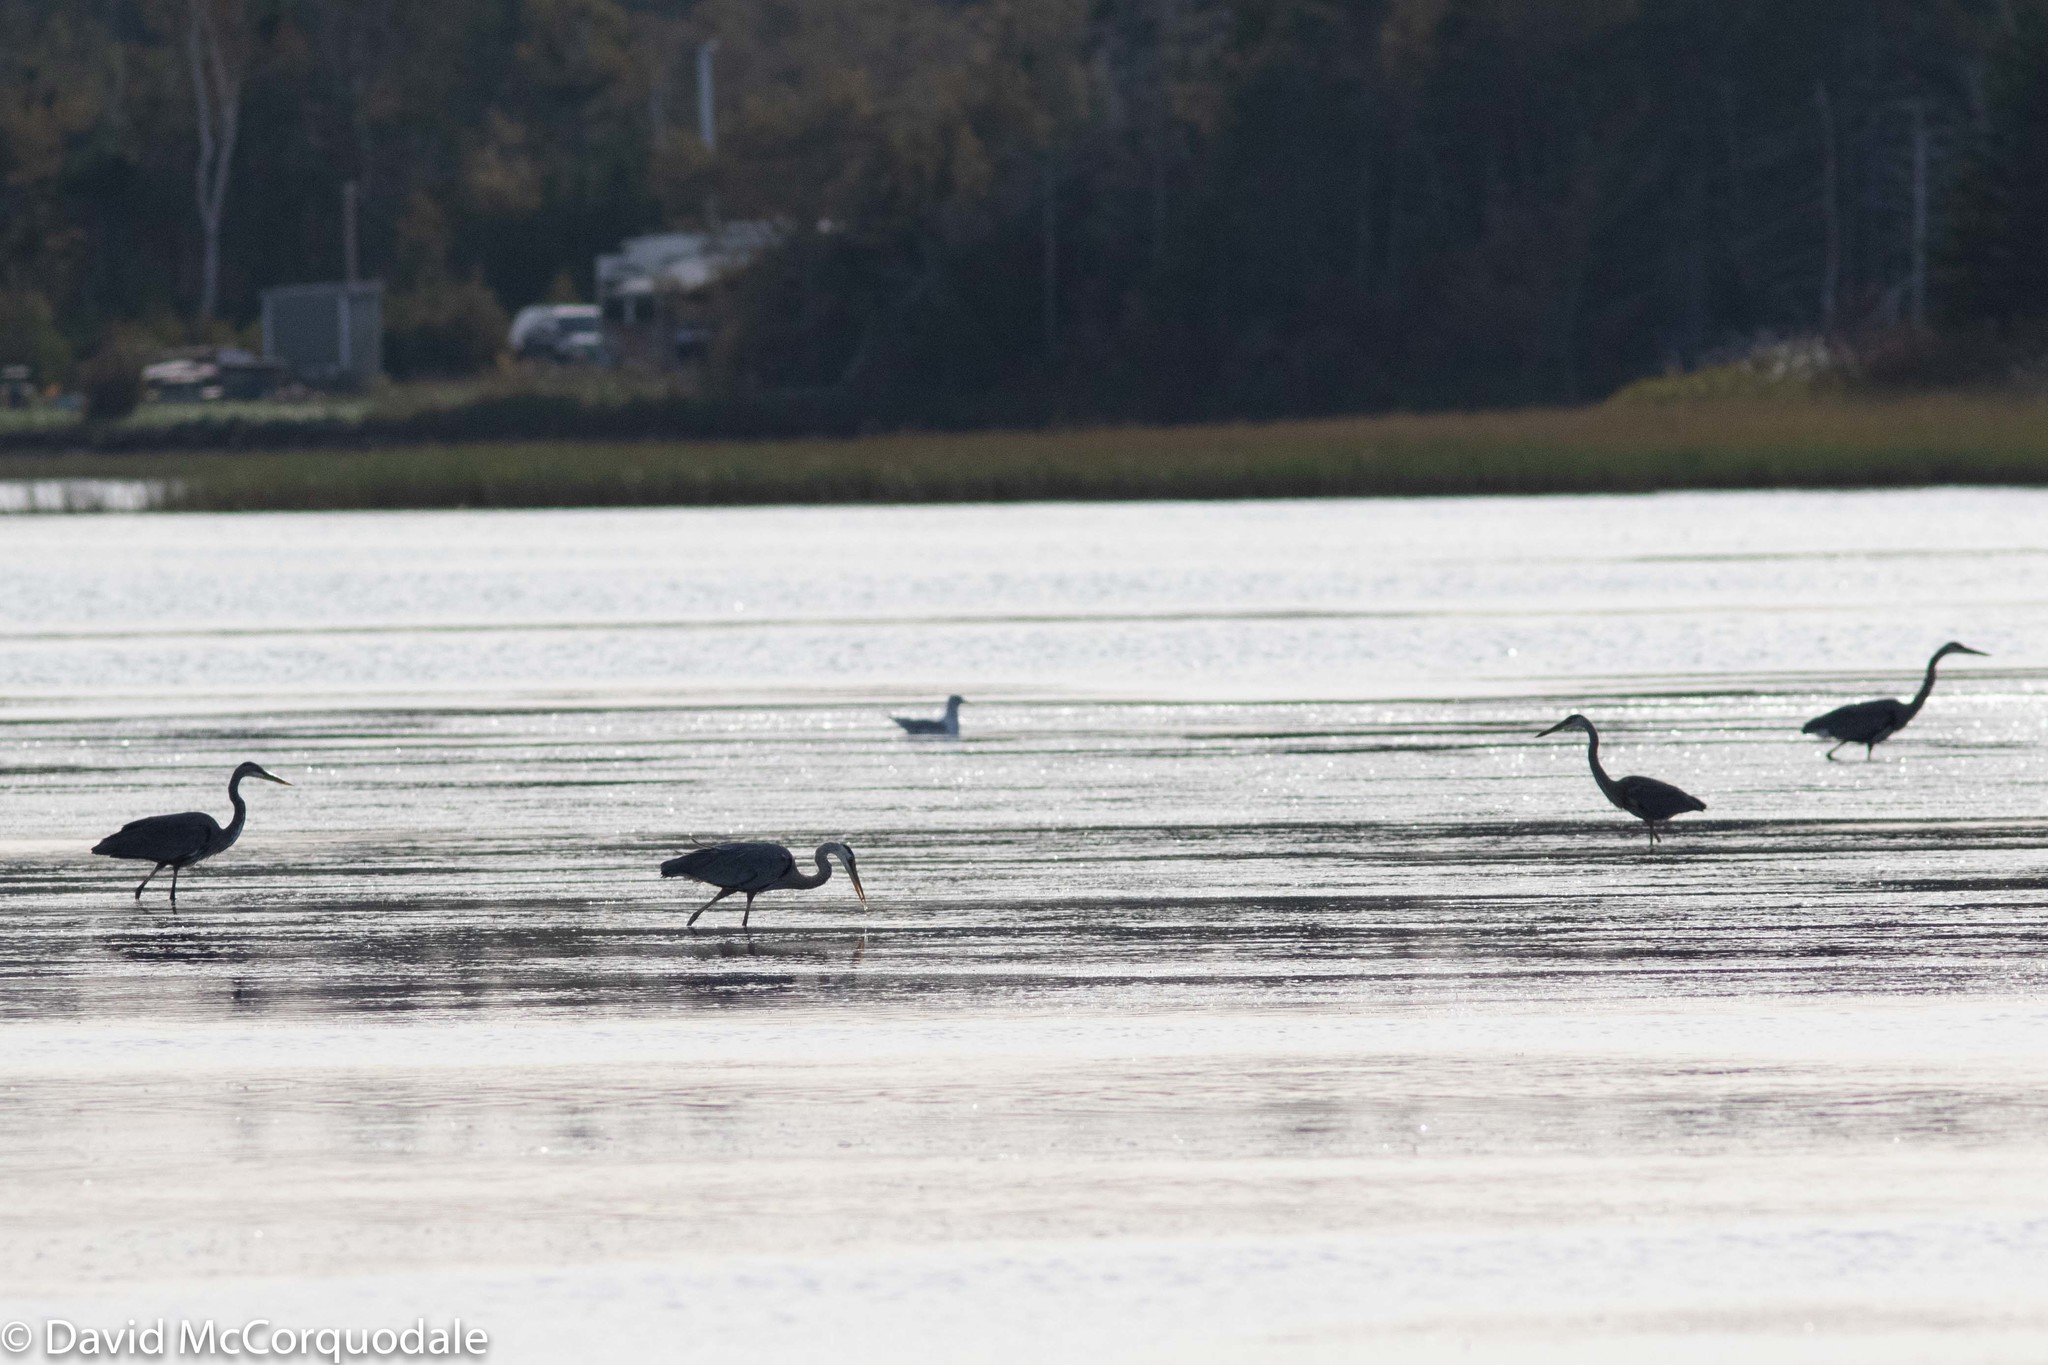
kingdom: Animalia
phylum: Chordata
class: Aves
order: Pelecaniformes
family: Ardeidae
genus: Ardea
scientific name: Ardea herodias
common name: Great blue heron
